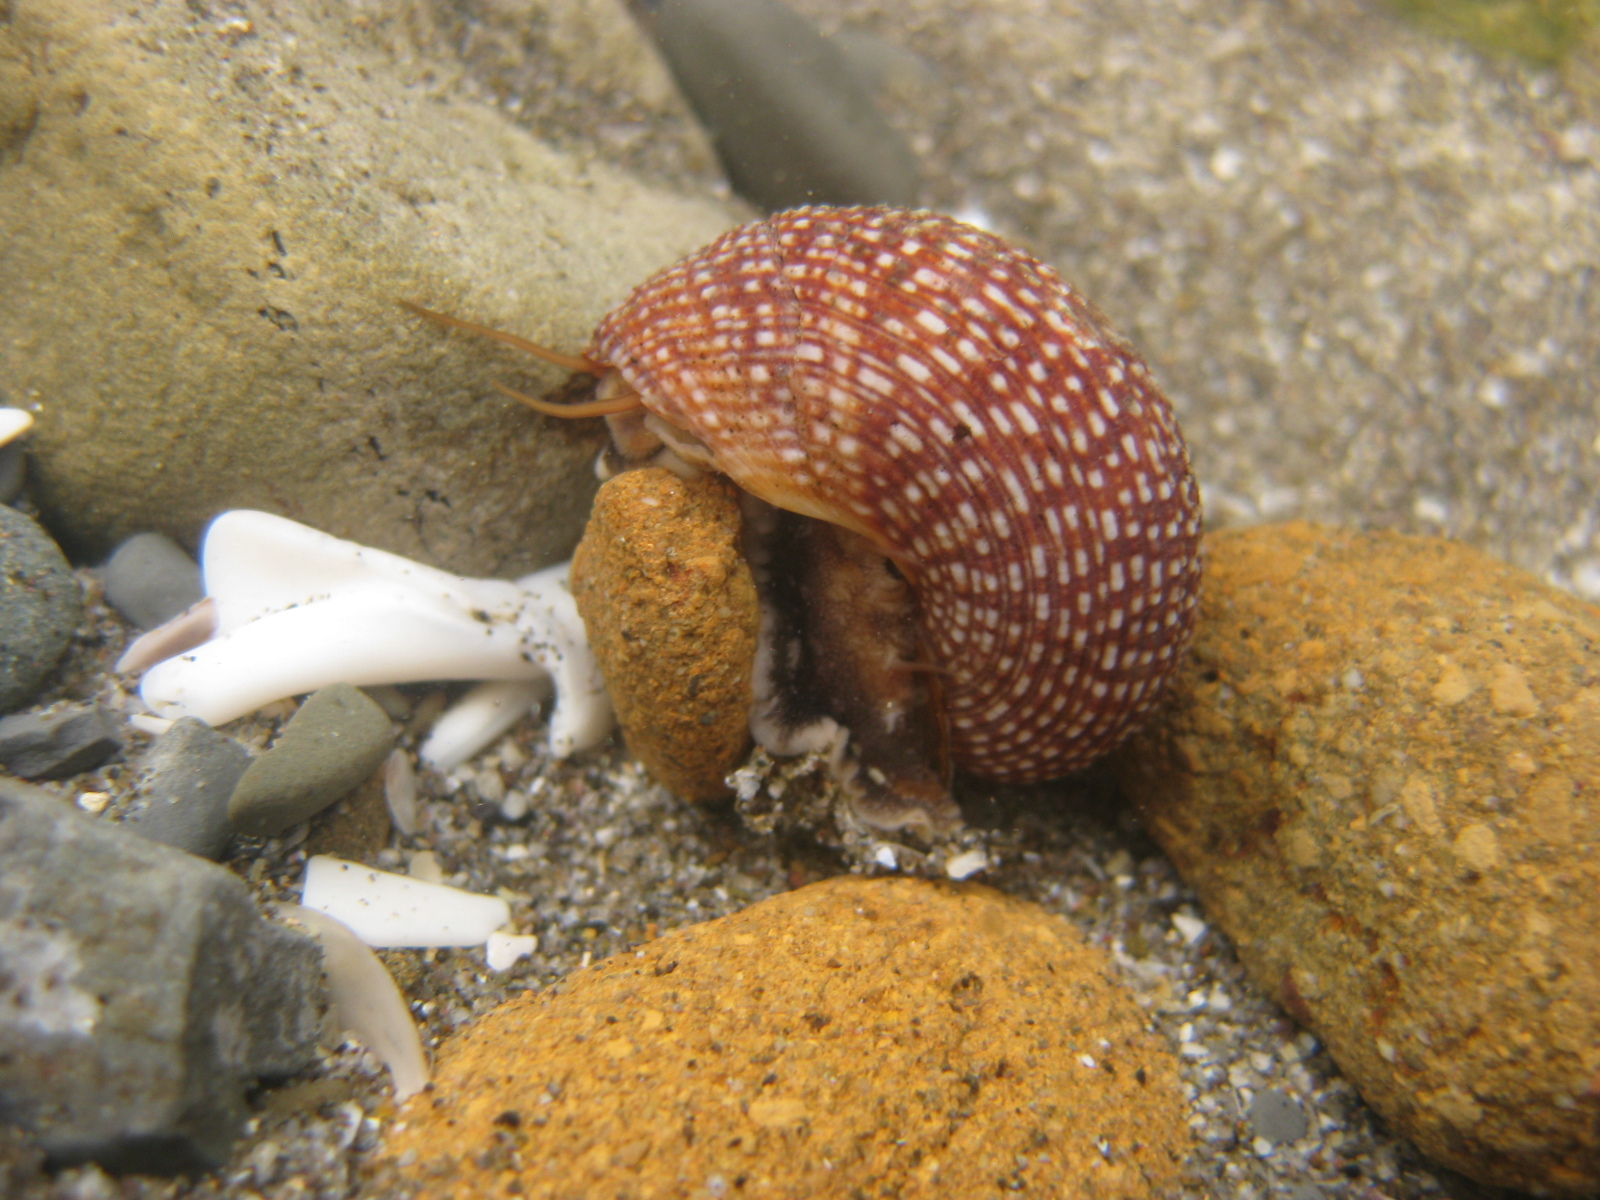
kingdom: Animalia
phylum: Mollusca
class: Gastropoda
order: Trochida
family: Calliostomatidae
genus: Maurea
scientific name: Maurea punctulata
